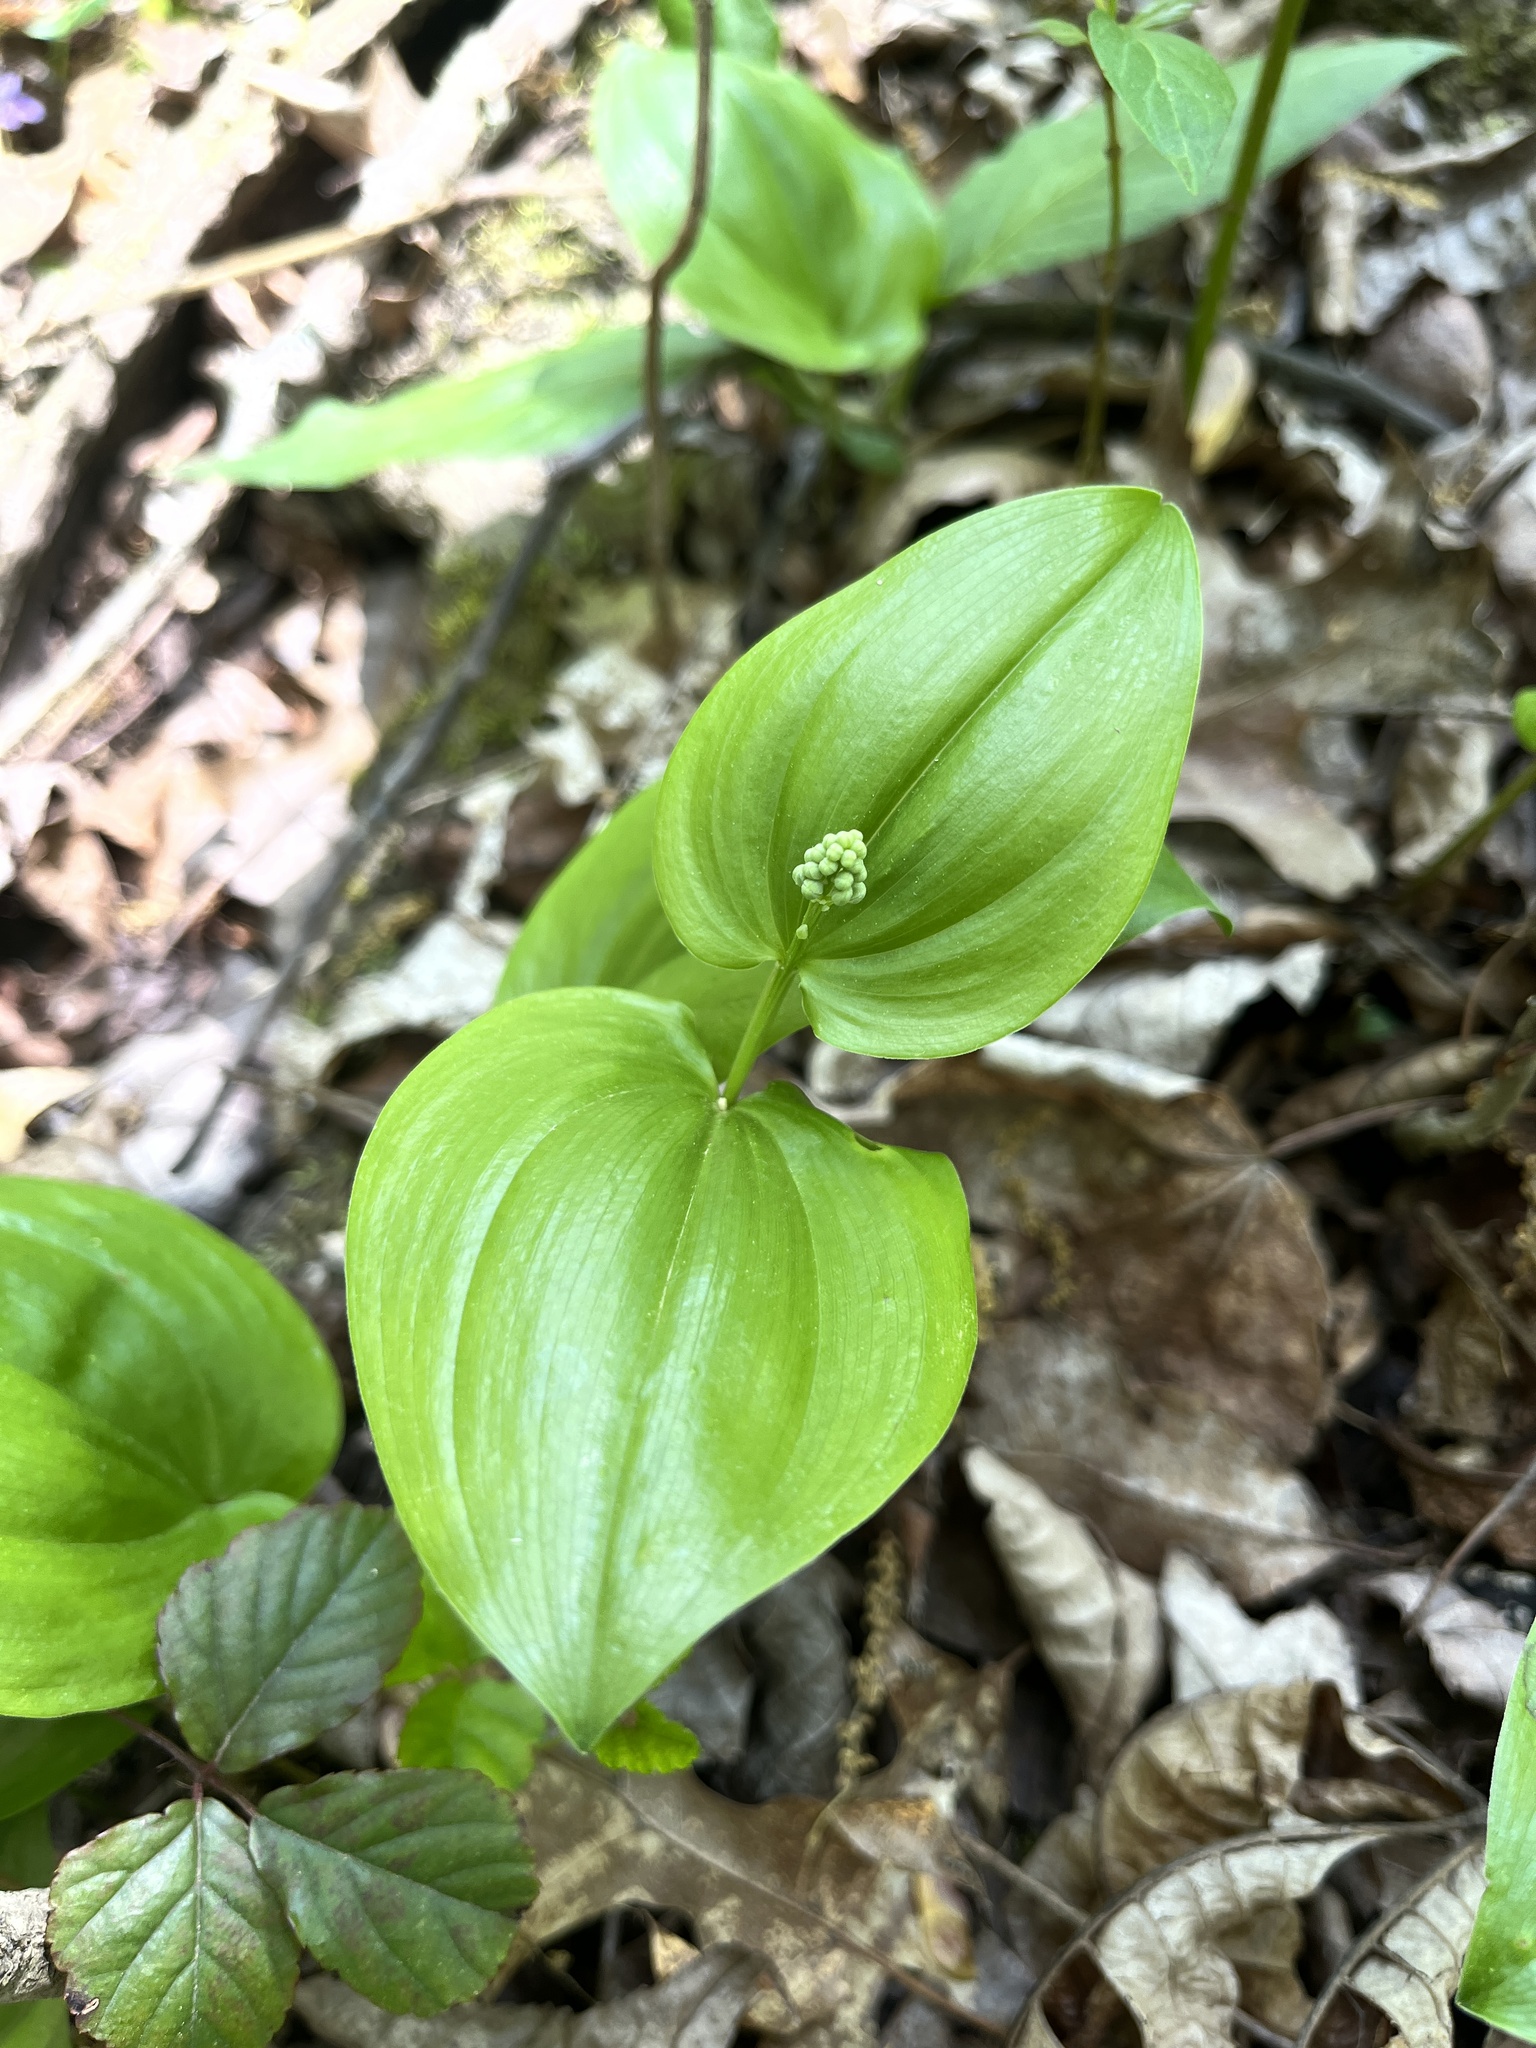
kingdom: Plantae
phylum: Tracheophyta
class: Liliopsida
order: Asparagales
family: Asparagaceae
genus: Maianthemum
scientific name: Maianthemum canadense
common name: False lily-of-the-valley
